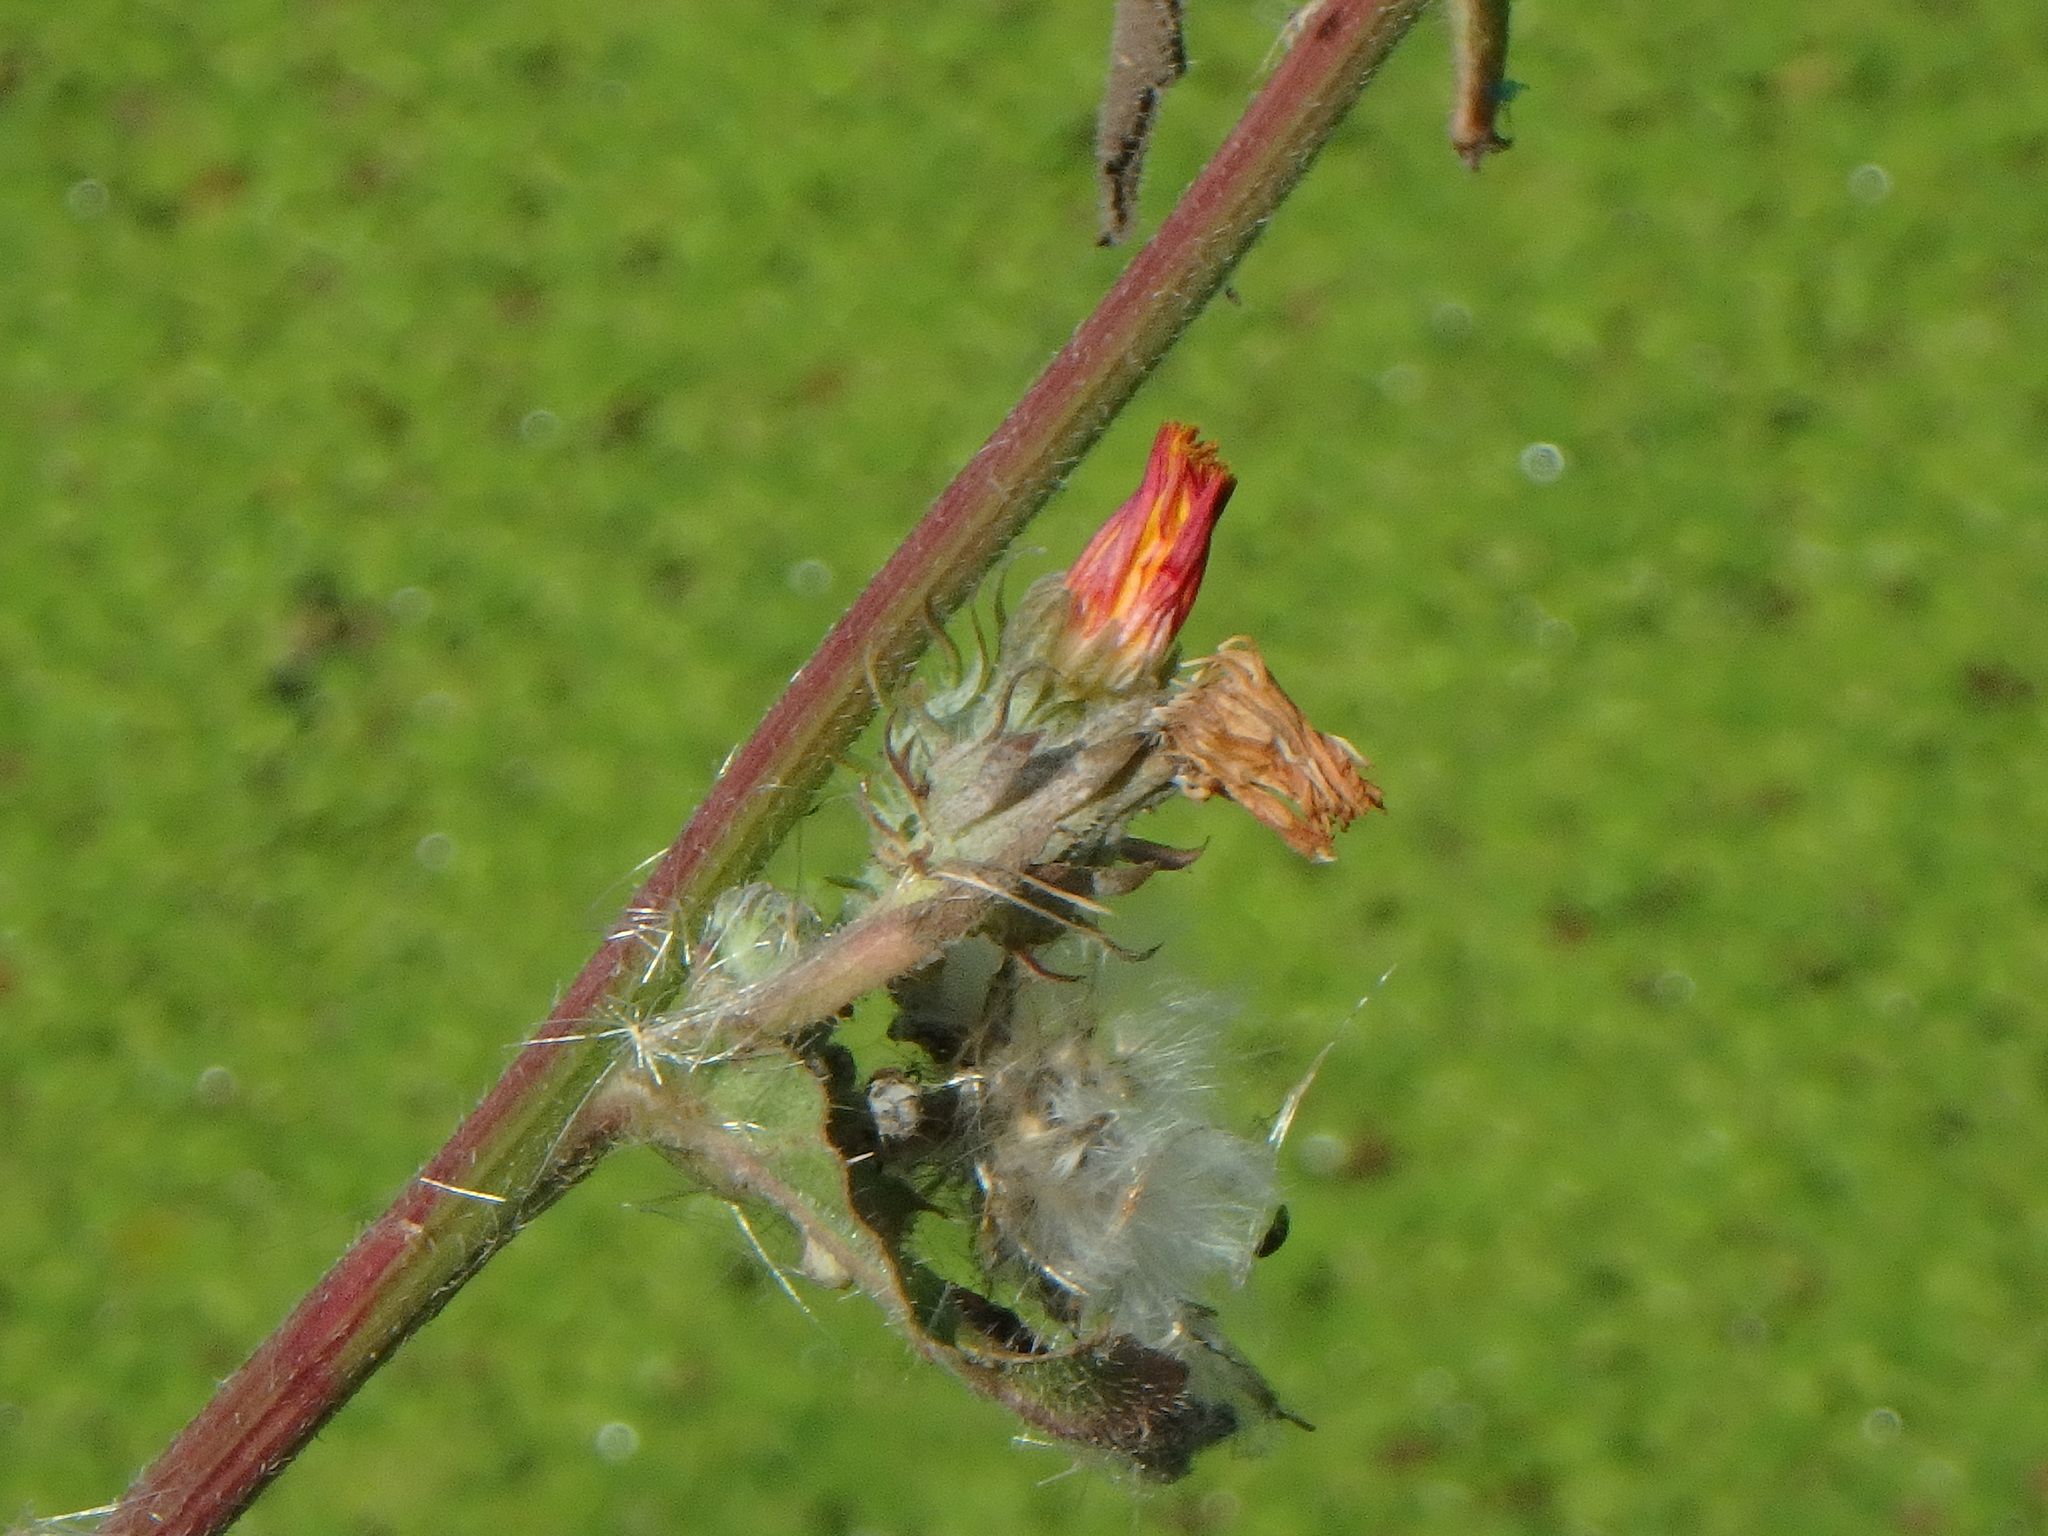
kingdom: Plantae
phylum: Tracheophyta
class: Magnoliopsida
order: Asterales
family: Asteraceae
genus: Picris
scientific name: Picris hieracioides
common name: Hawkweed oxtongue
